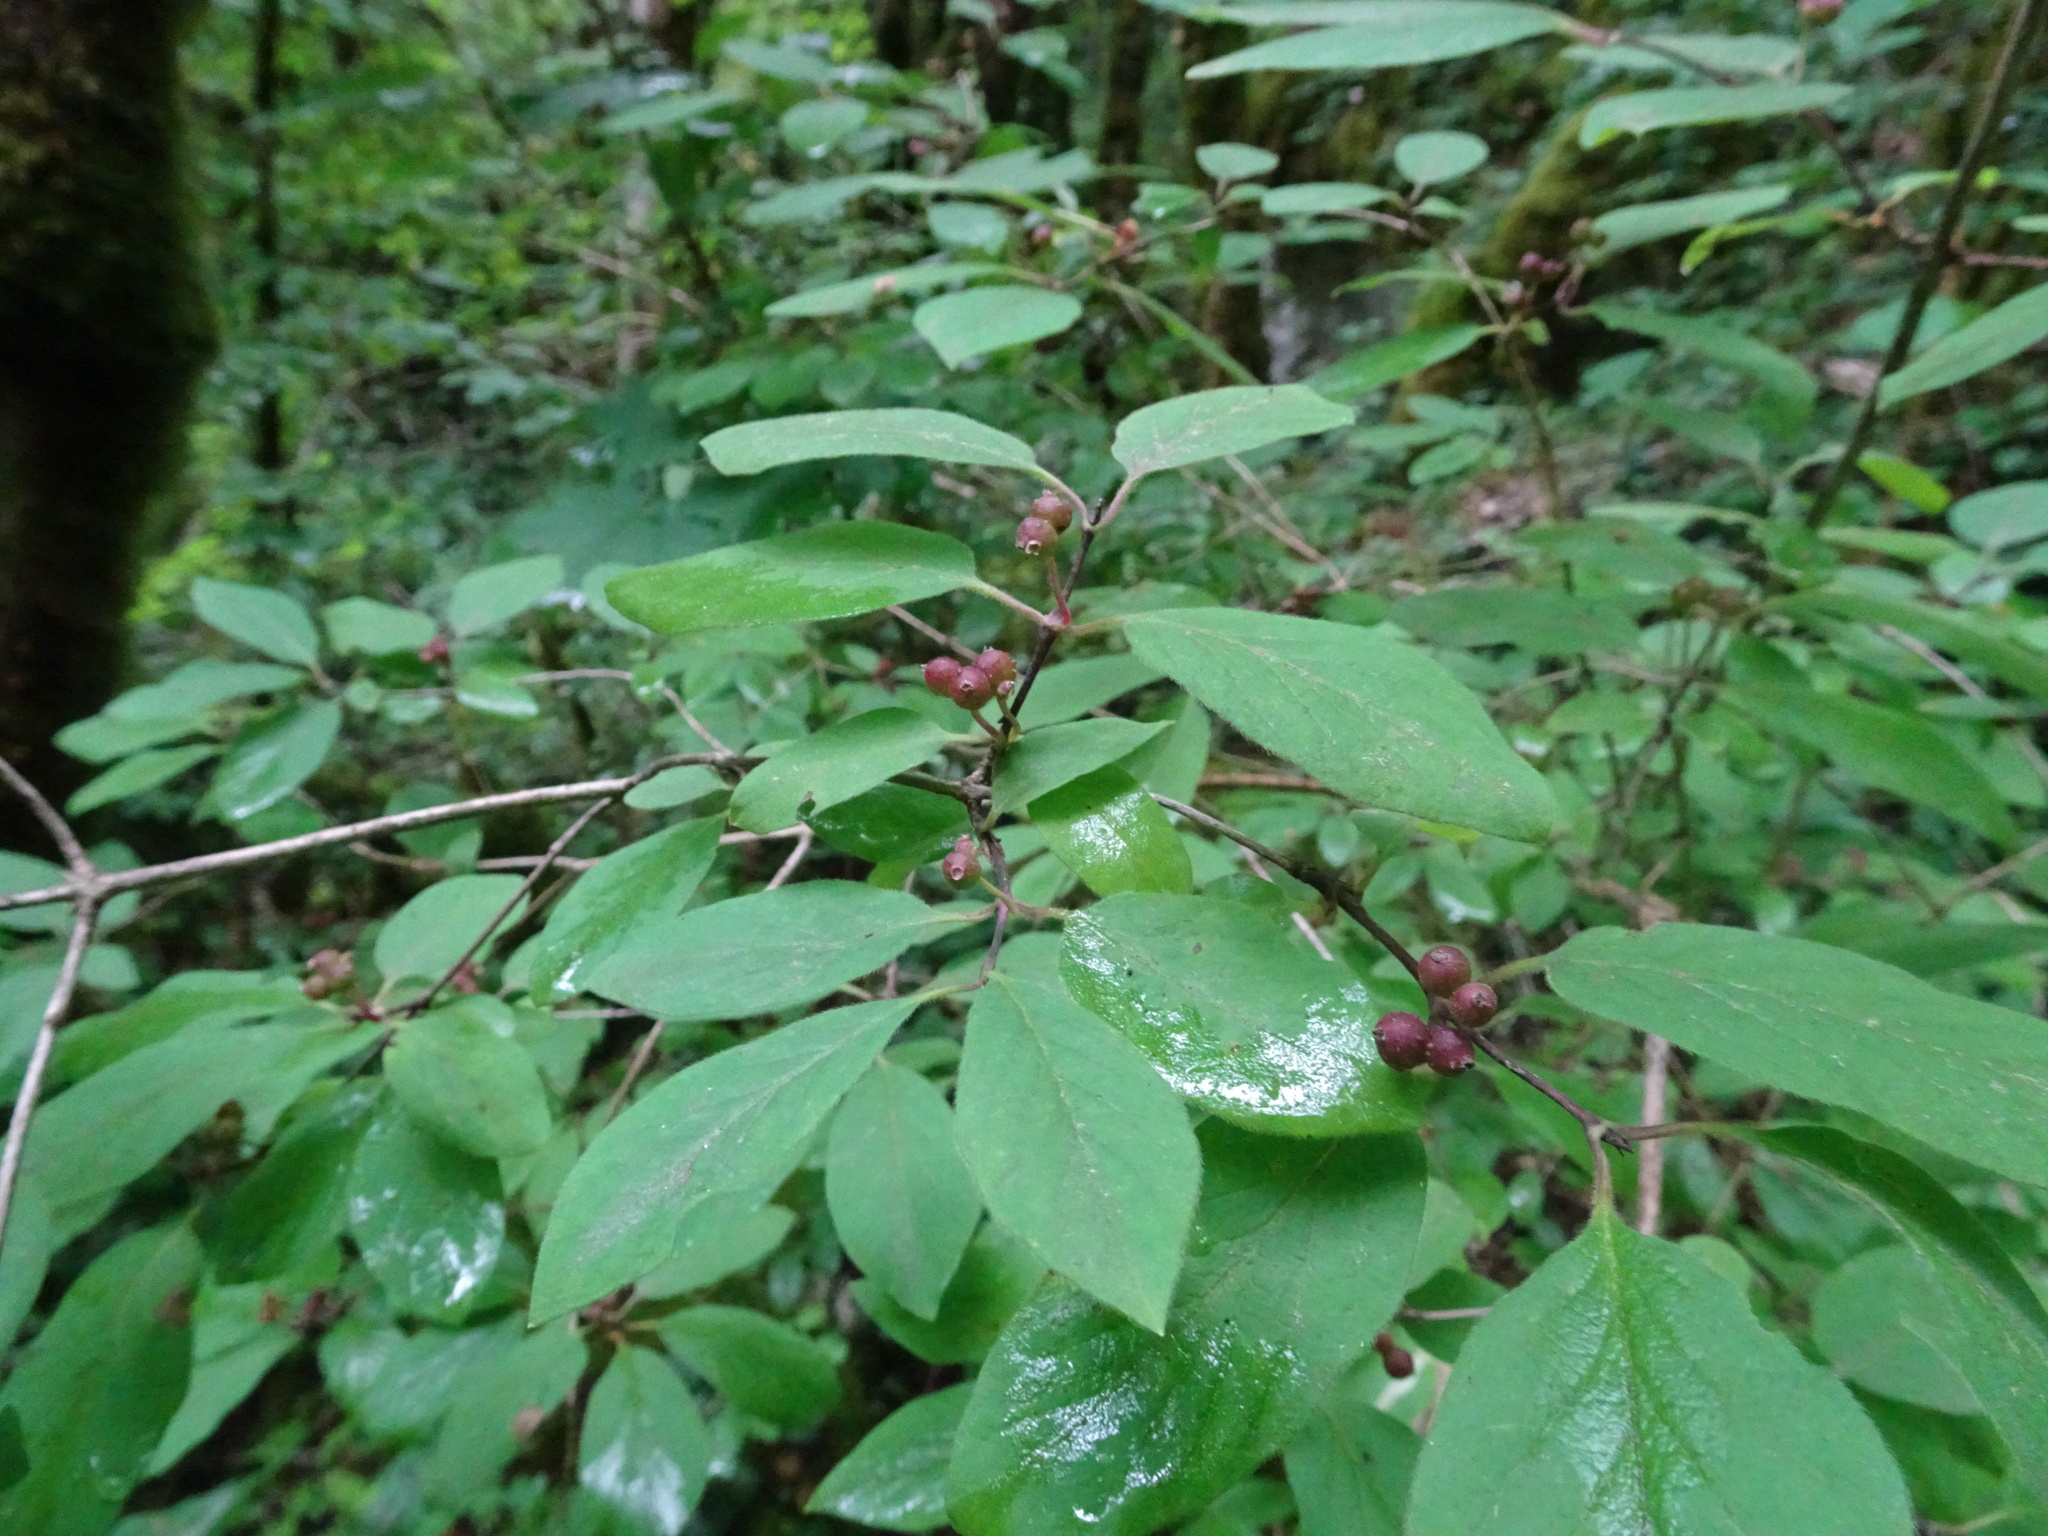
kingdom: Plantae
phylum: Tracheophyta
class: Magnoliopsida
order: Dipsacales
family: Caprifoliaceae
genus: Lonicera
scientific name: Lonicera xylosteum
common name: Fly honeysuckle
